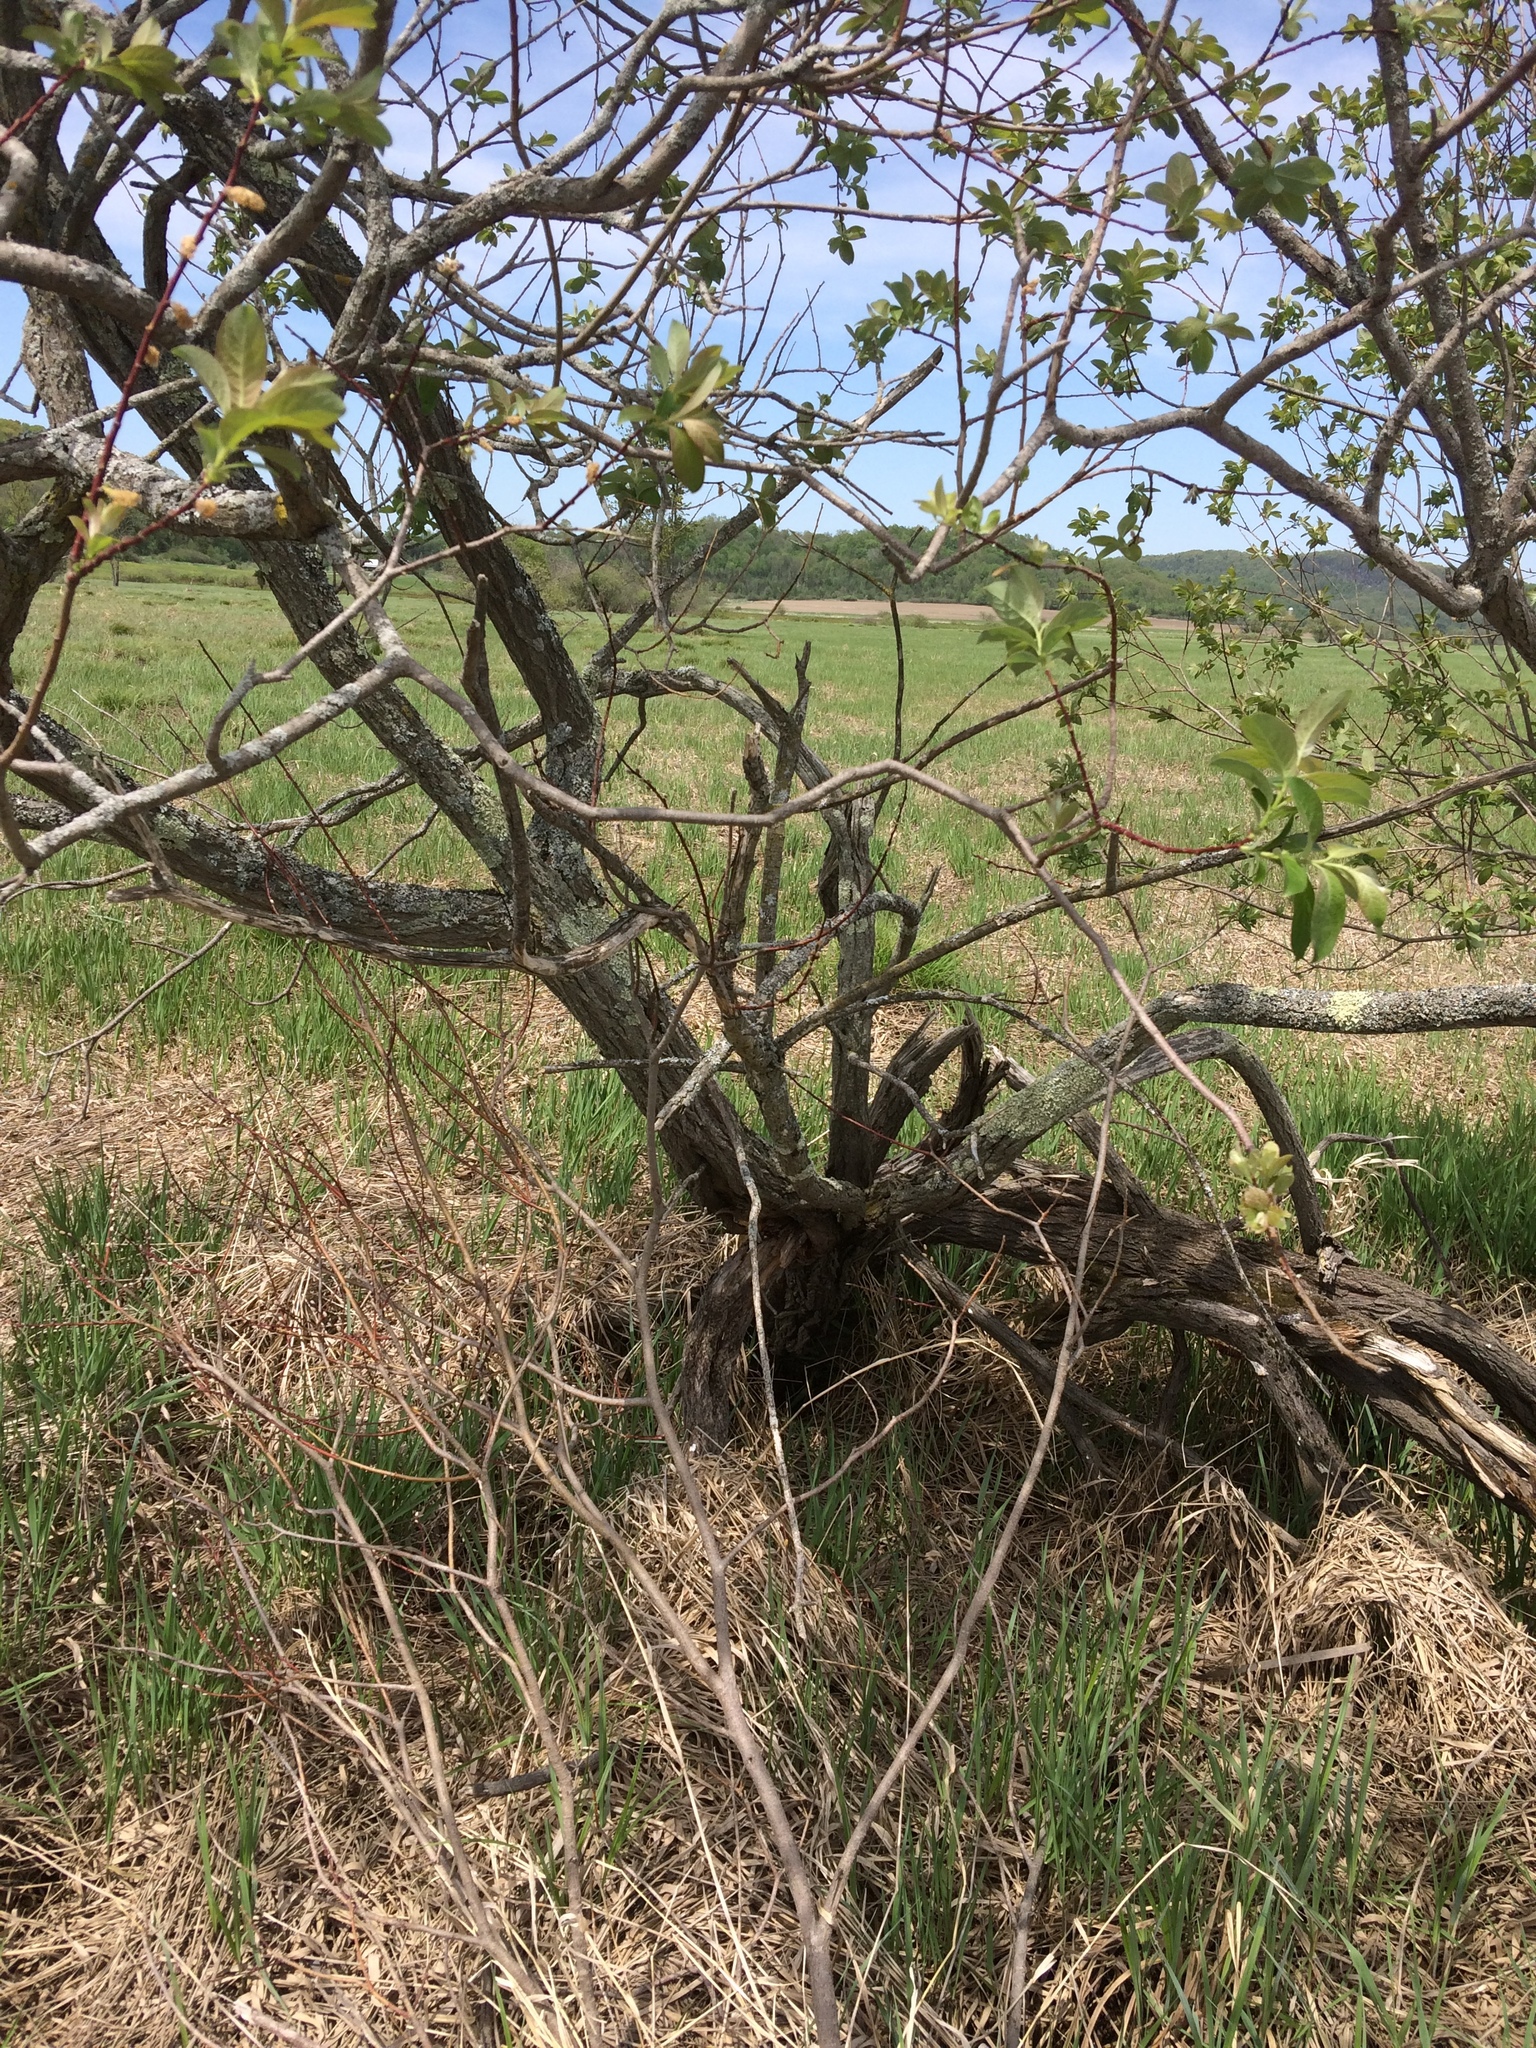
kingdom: Plantae
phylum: Tracheophyta
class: Magnoliopsida
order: Malpighiales
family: Salicaceae
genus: Salix
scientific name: Salix bebbiana
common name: Bebb's willow
